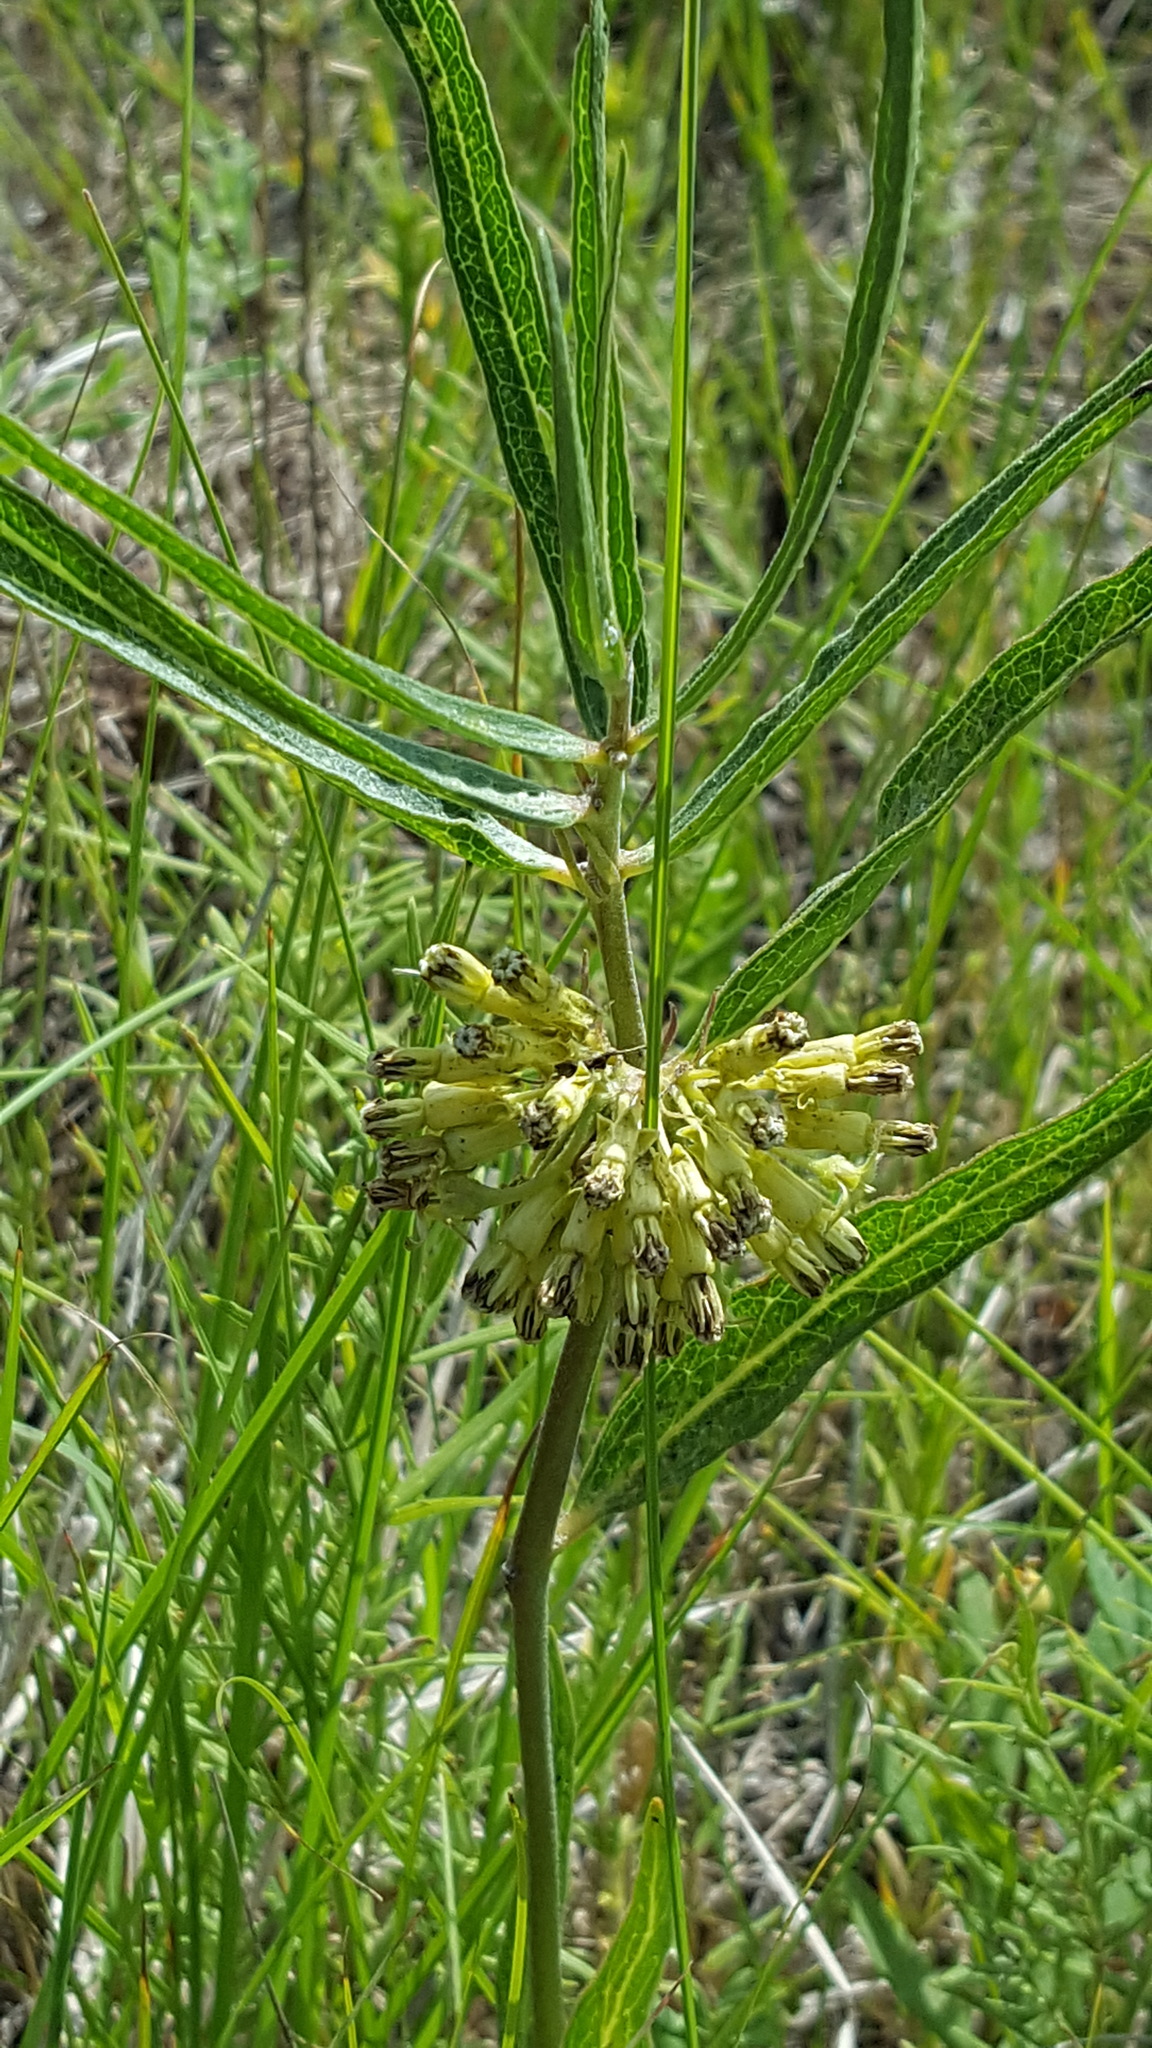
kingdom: Plantae
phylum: Tracheophyta
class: Magnoliopsida
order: Gentianales
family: Apocynaceae
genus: Asclepias
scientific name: Asclepias viridiflora
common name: Green comet milkweed
